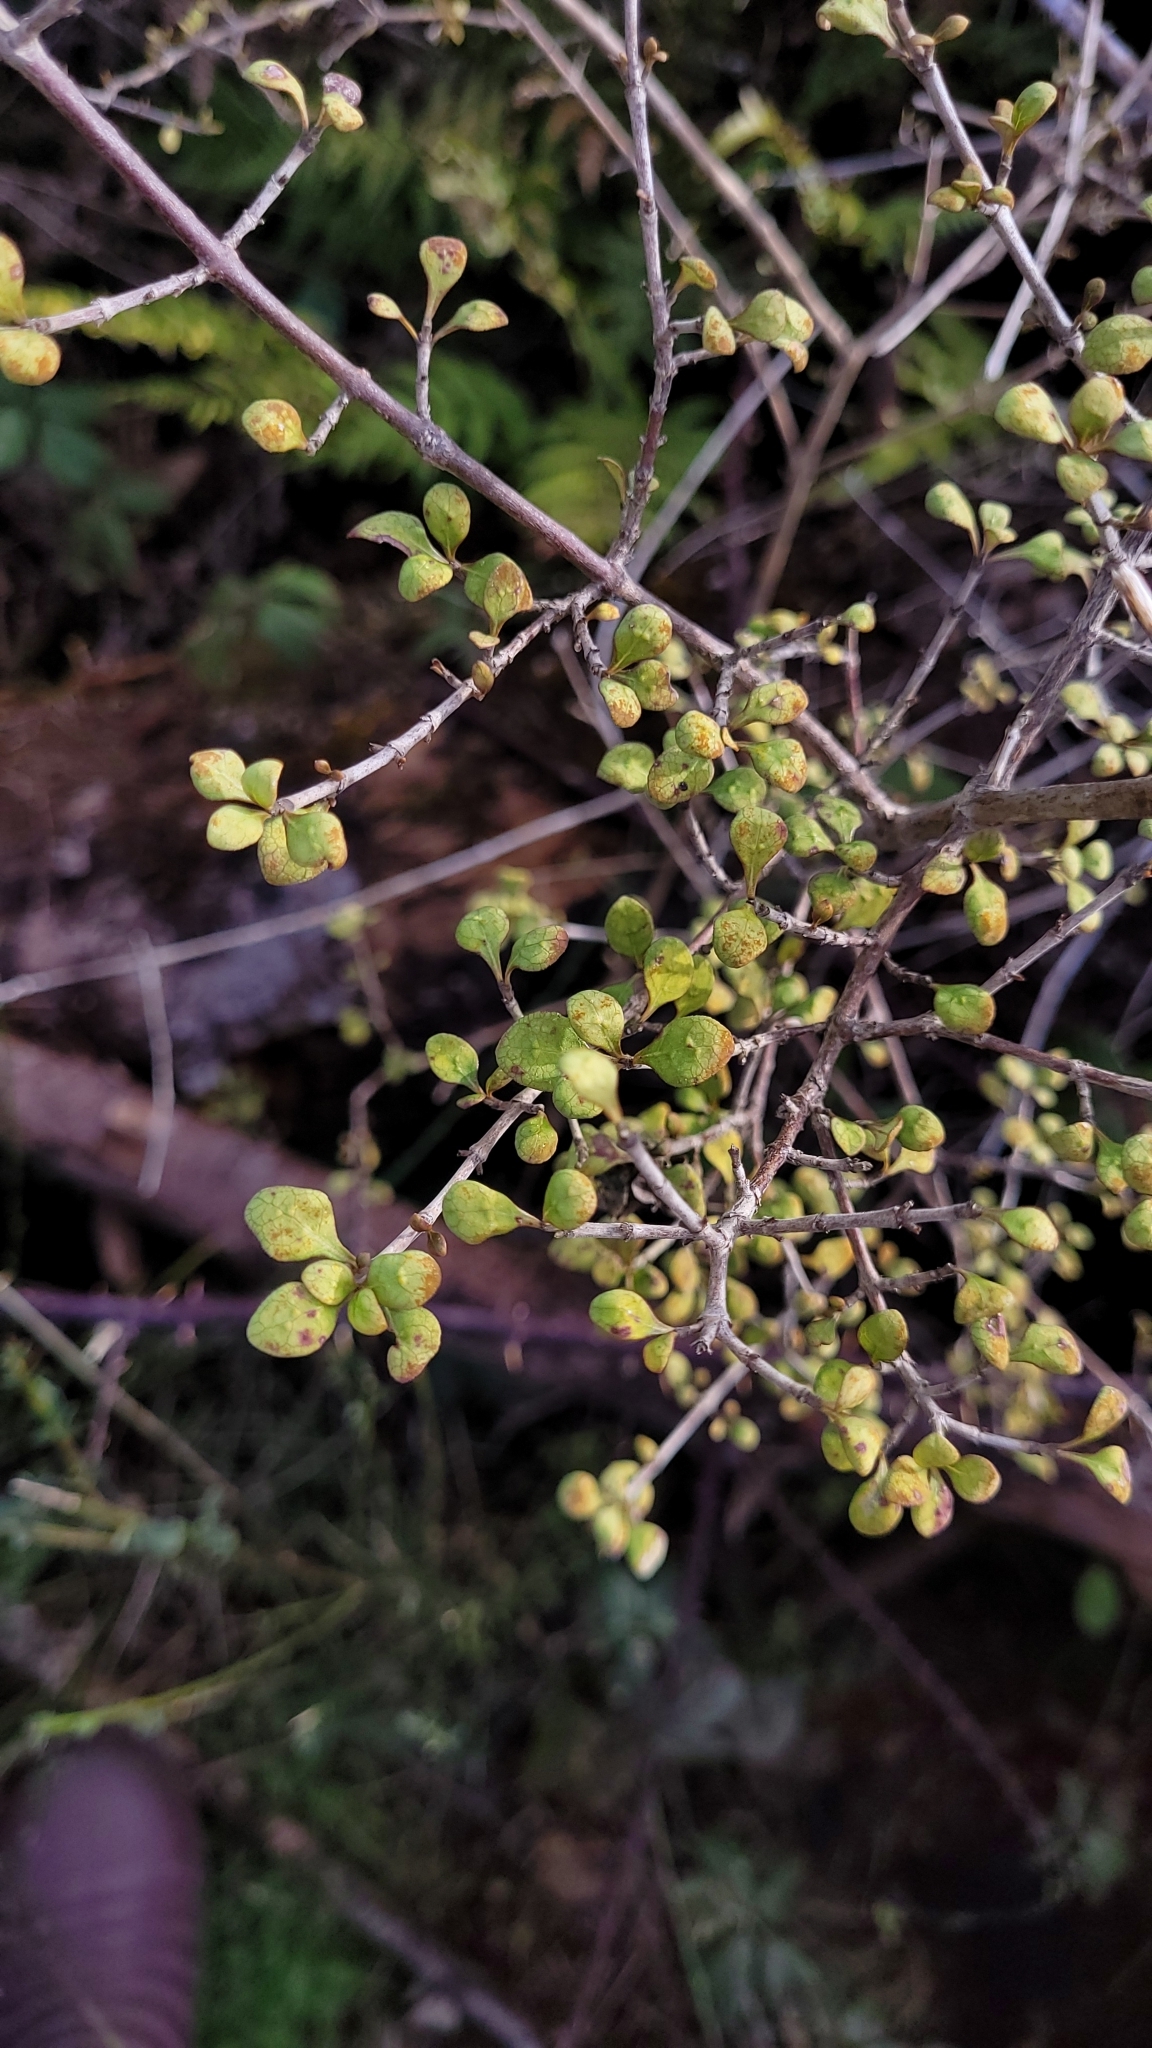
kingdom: Plantae
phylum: Tracheophyta
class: Magnoliopsida
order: Gentianales
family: Rubiaceae
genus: Coprosma
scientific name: Coprosma tenuicaulis
